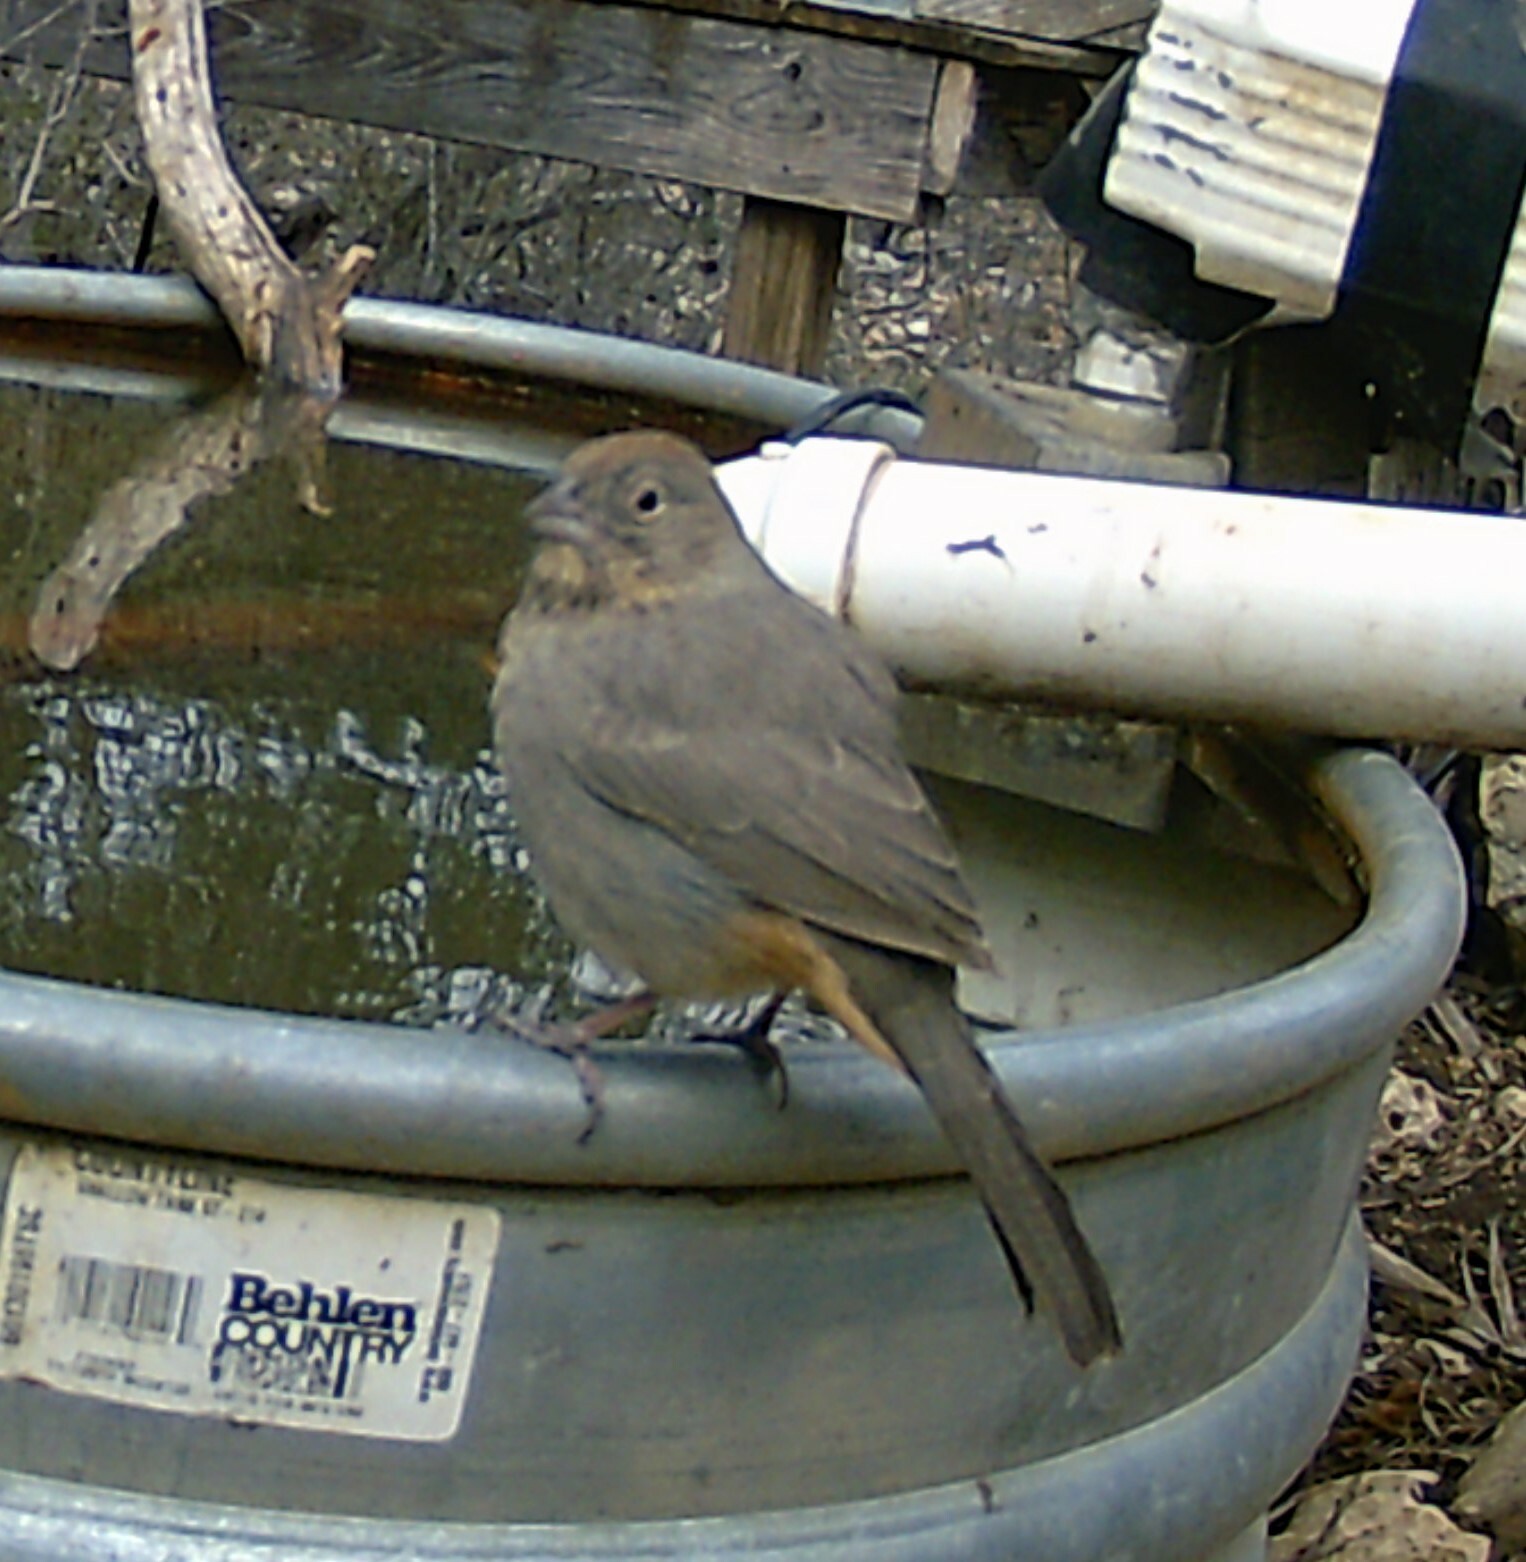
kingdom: Animalia
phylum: Chordata
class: Aves
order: Passeriformes
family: Passerellidae
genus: Melozone
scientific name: Melozone fusca
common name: Canyon towhee
